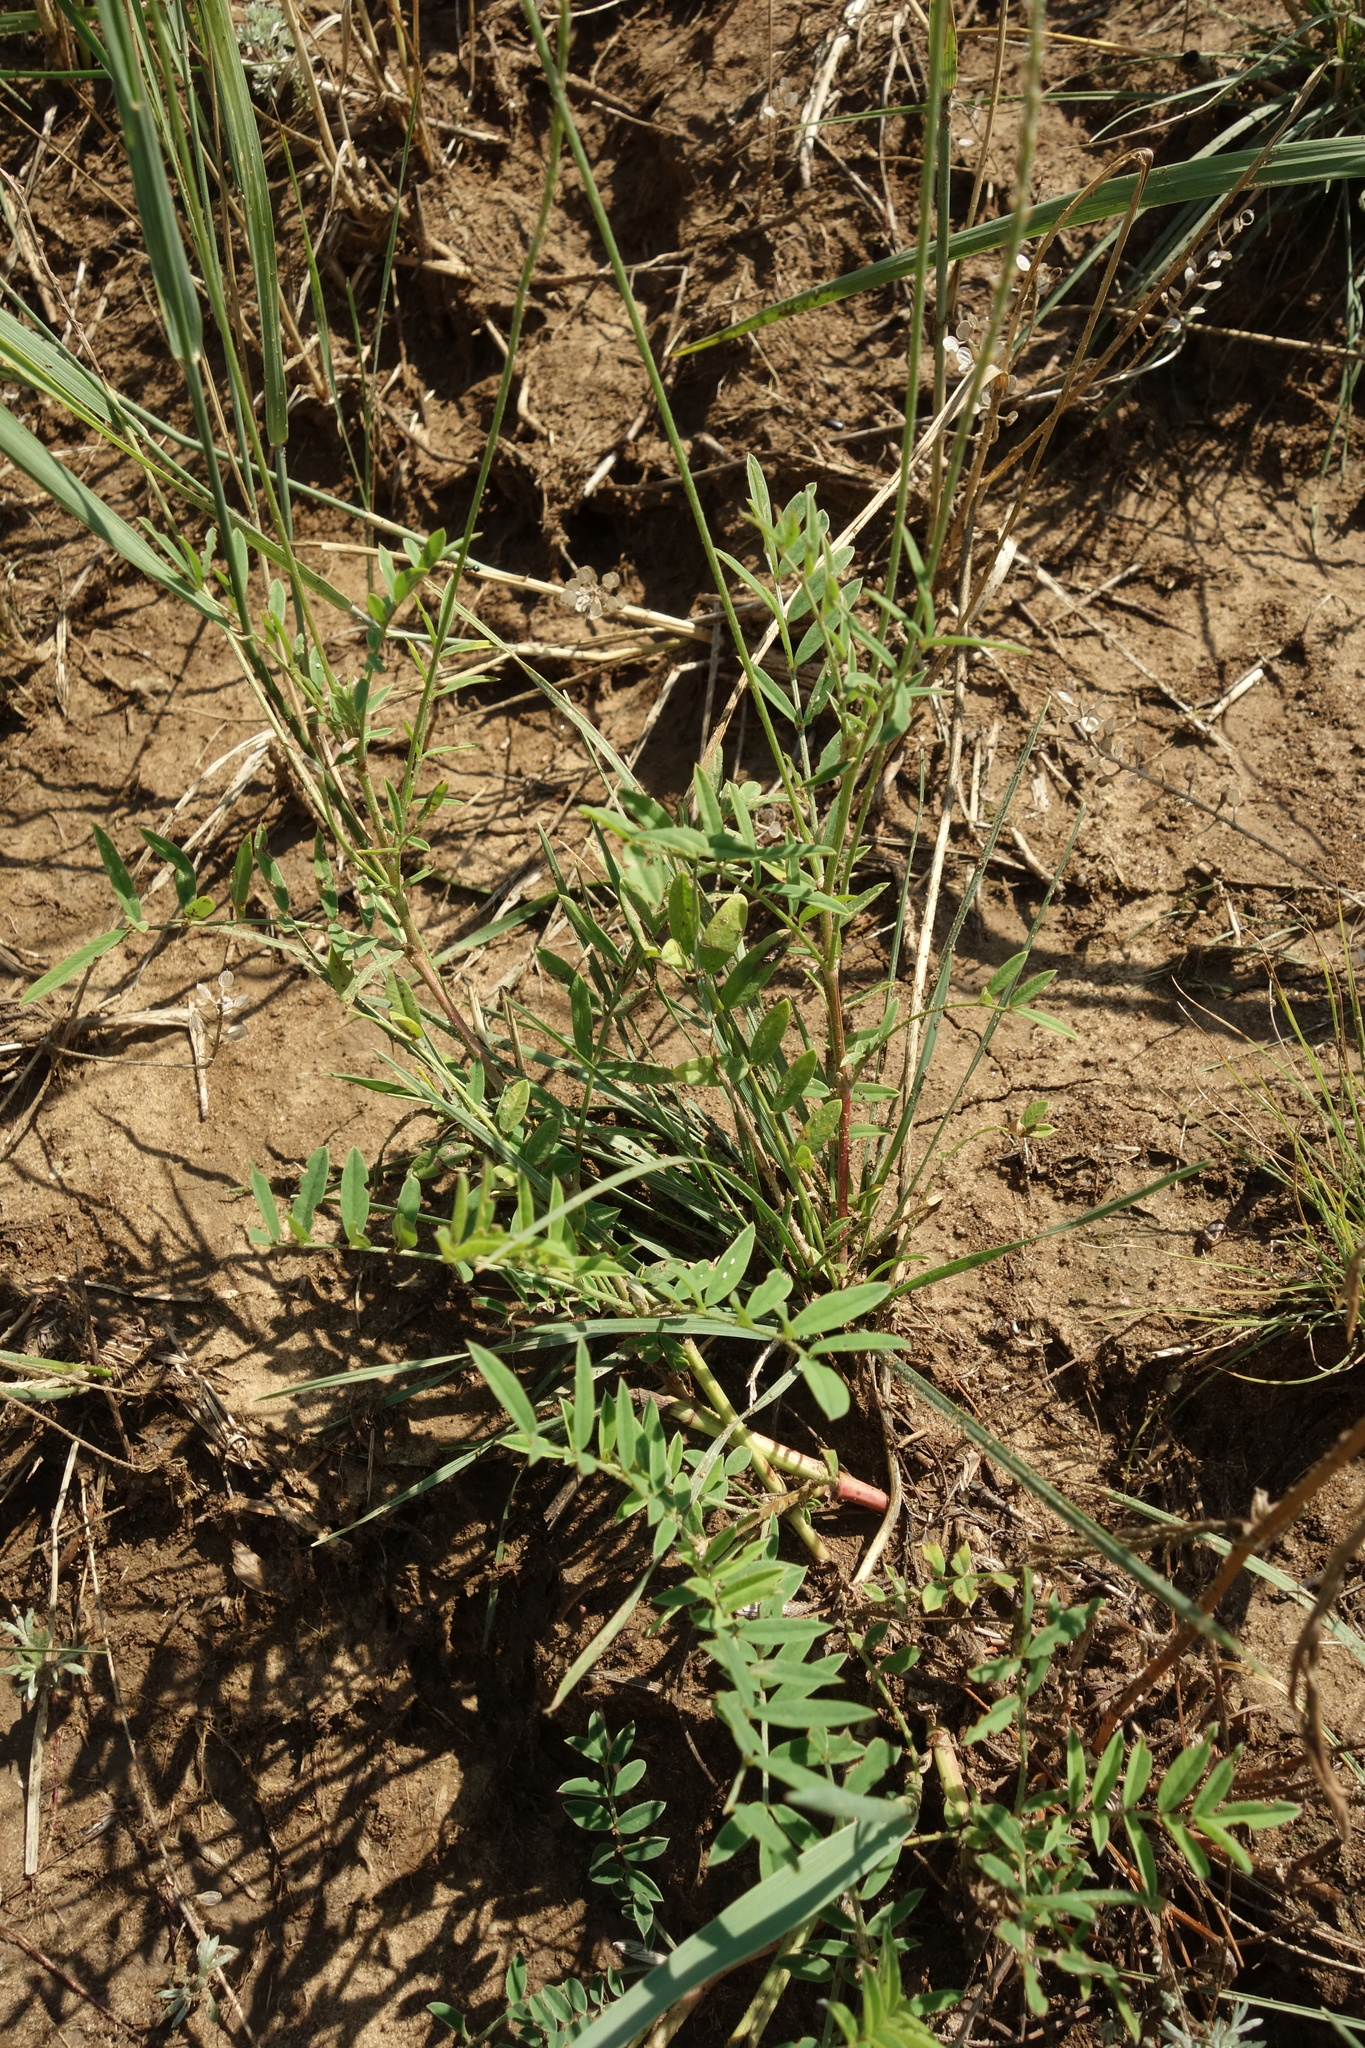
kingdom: Plantae
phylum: Tracheophyta
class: Magnoliopsida
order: Fabales
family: Fabaceae
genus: Onobrychis
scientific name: Onobrychis viciifolia
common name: Sainfoin
